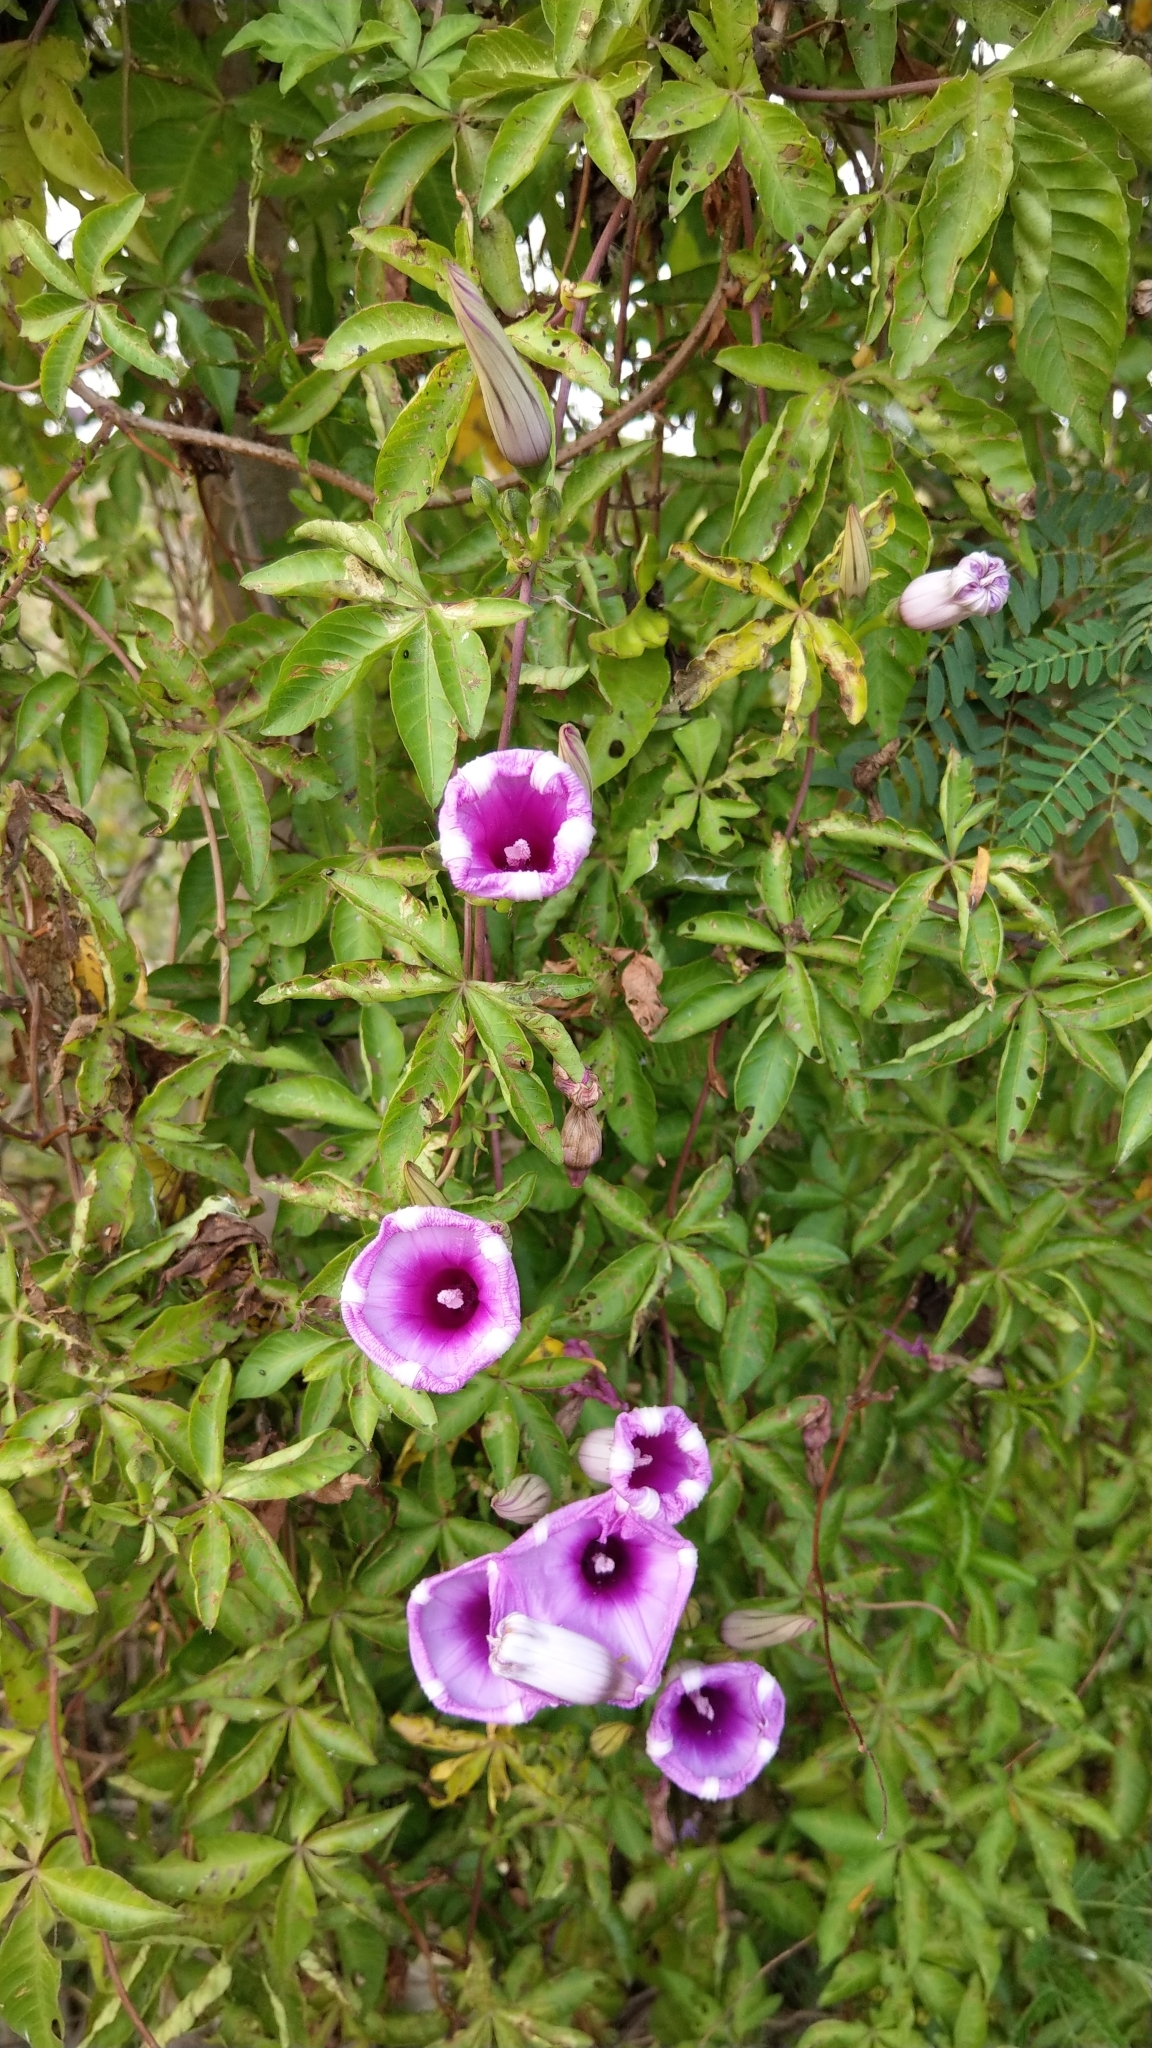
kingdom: Plantae
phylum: Tracheophyta
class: Magnoliopsida
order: Solanales
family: Convolvulaceae
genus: Ipomoea
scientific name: Ipomoea cairica
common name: Mile a minute vine
